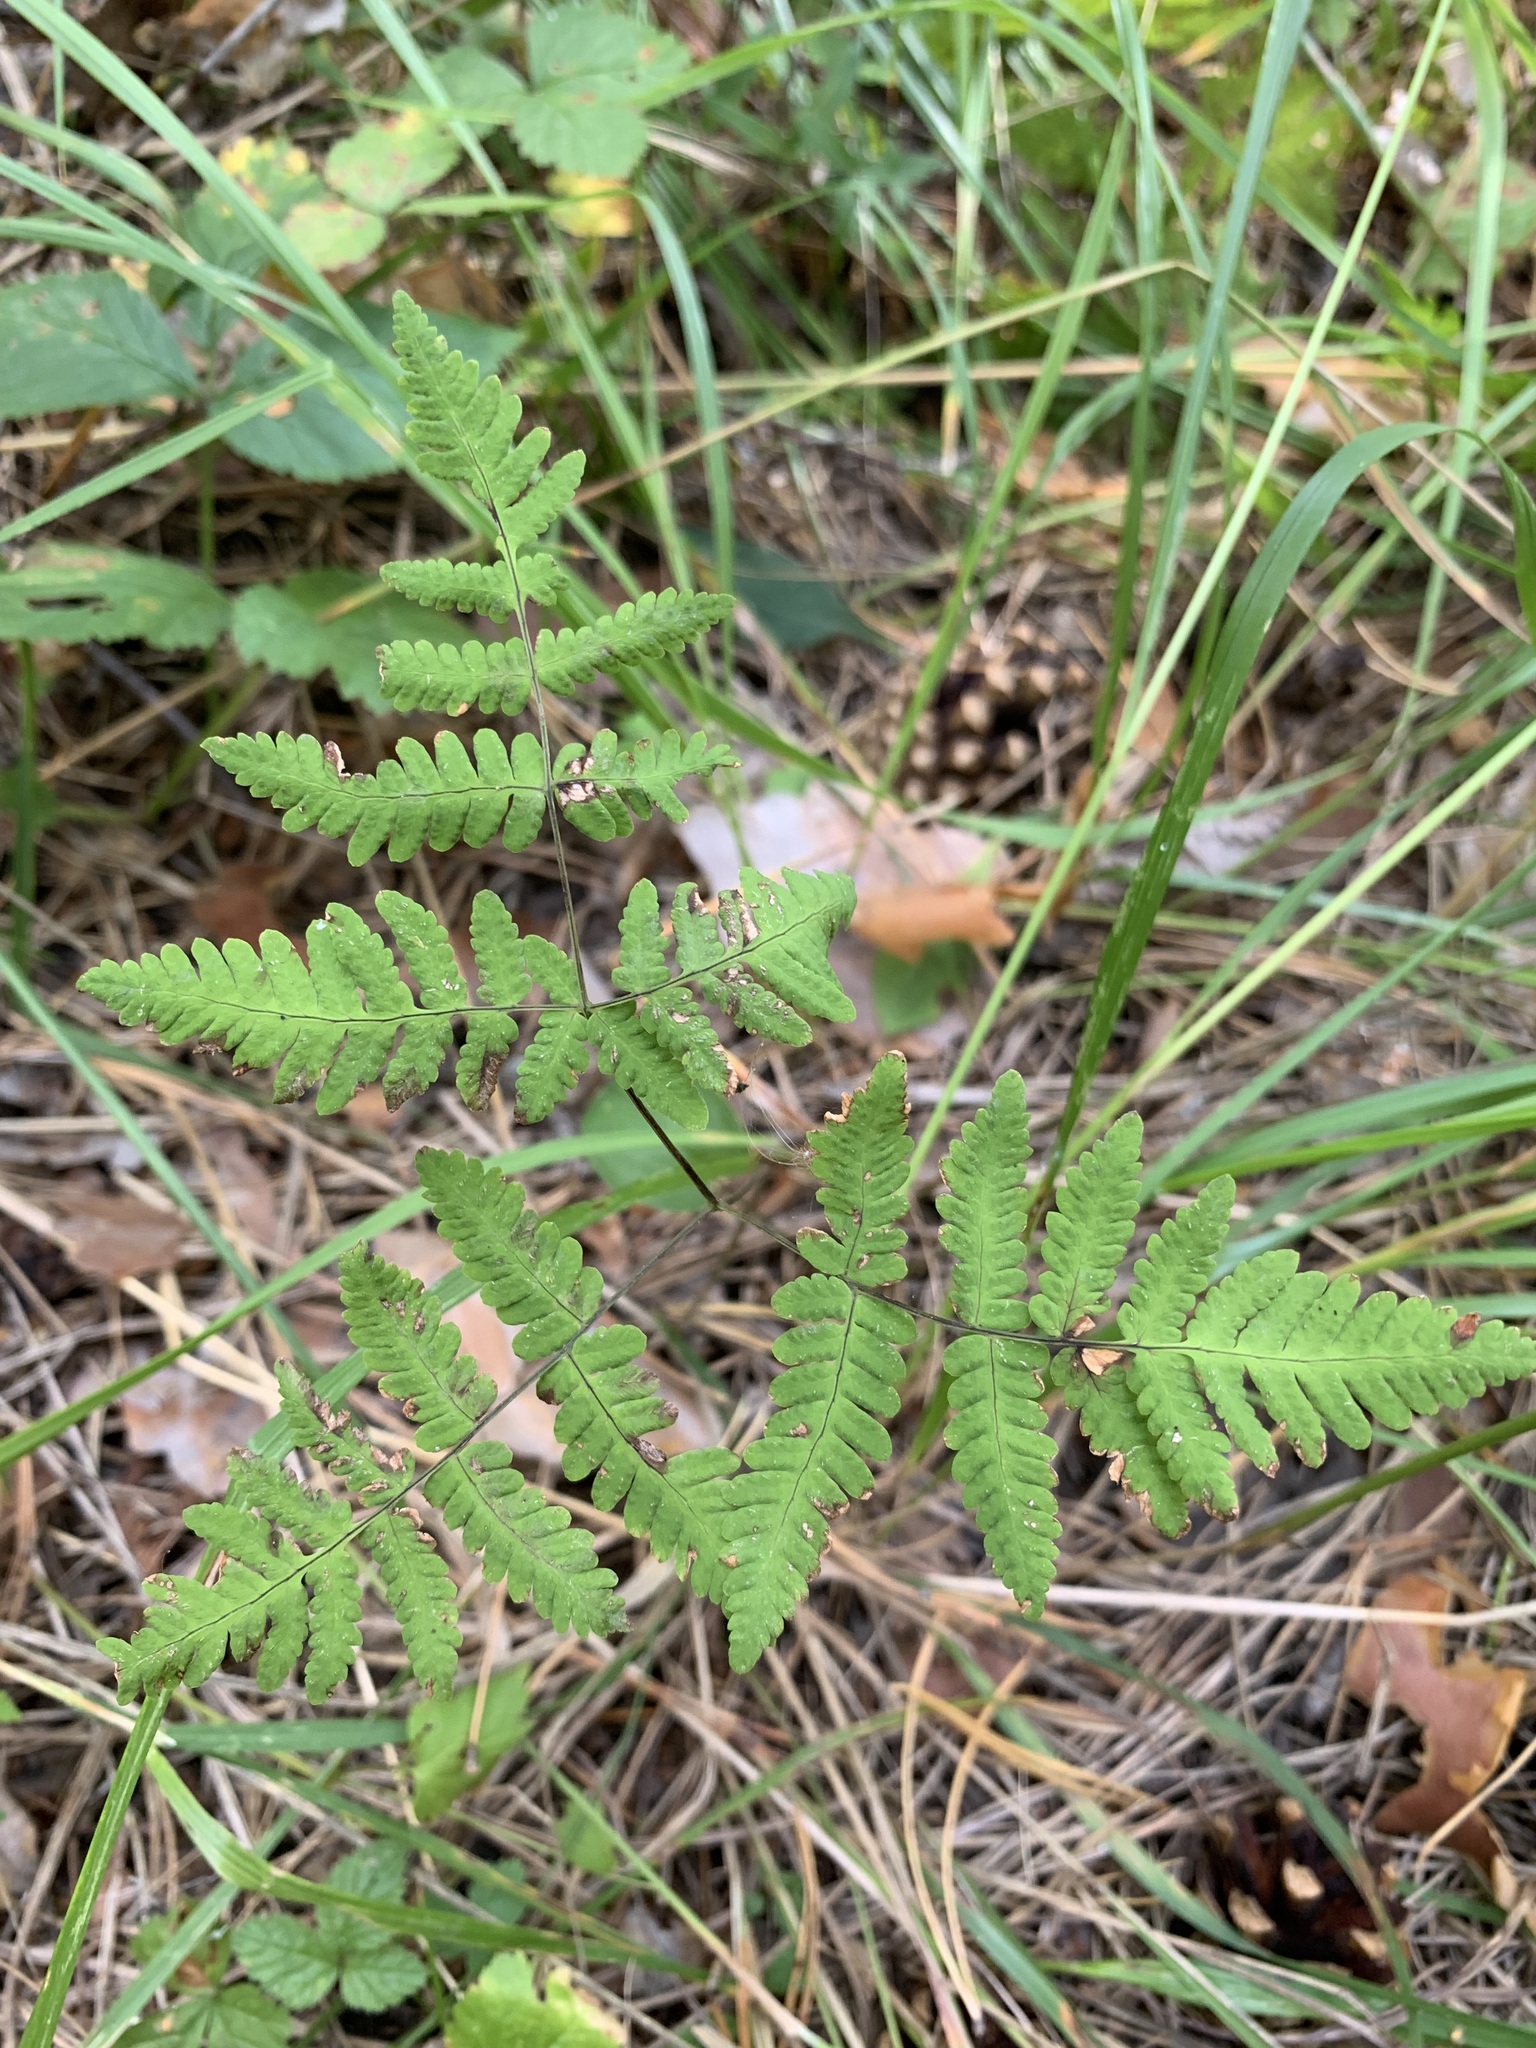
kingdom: Plantae
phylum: Tracheophyta
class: Polypodiopsida
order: Polypodiales
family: Cystopteridaceae
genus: Gymnocarpium
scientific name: Gymnocarpium dryopteris
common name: Oak fern
